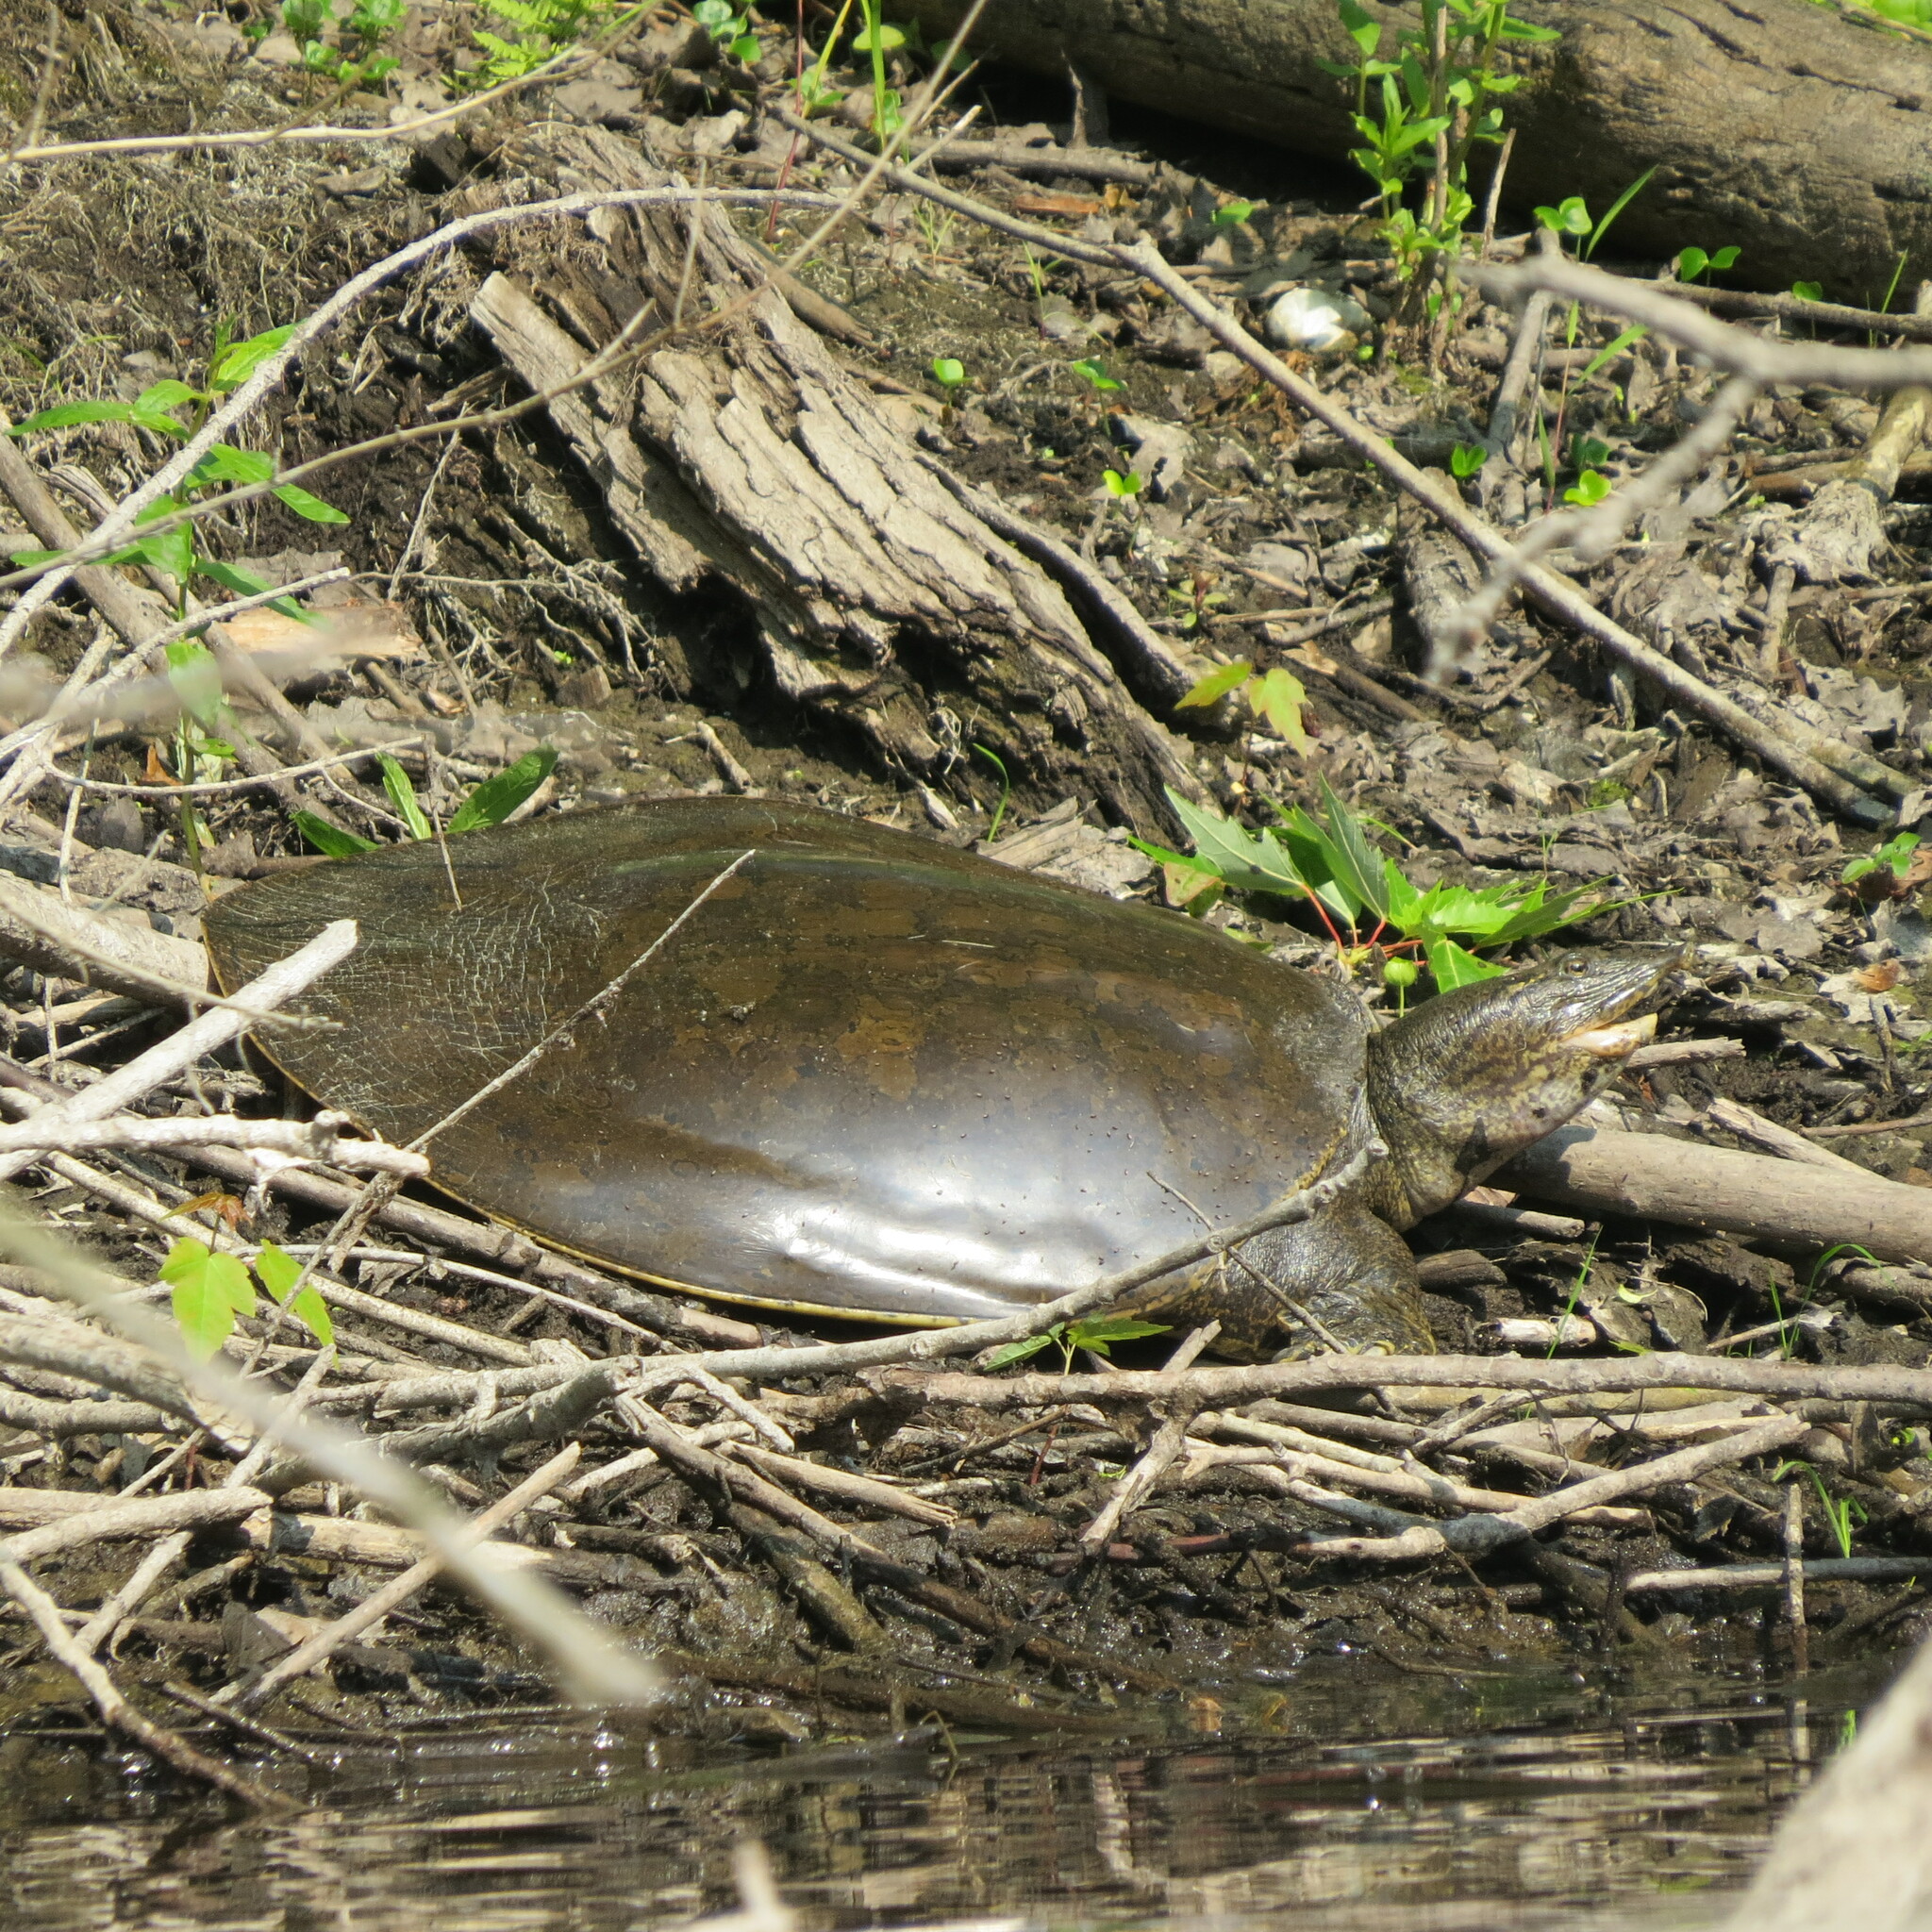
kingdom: Animalia
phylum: Chordata
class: Testudines
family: Trionychidae
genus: Apalone
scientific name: Apalone spinifera
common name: Spiny softshell turtle
